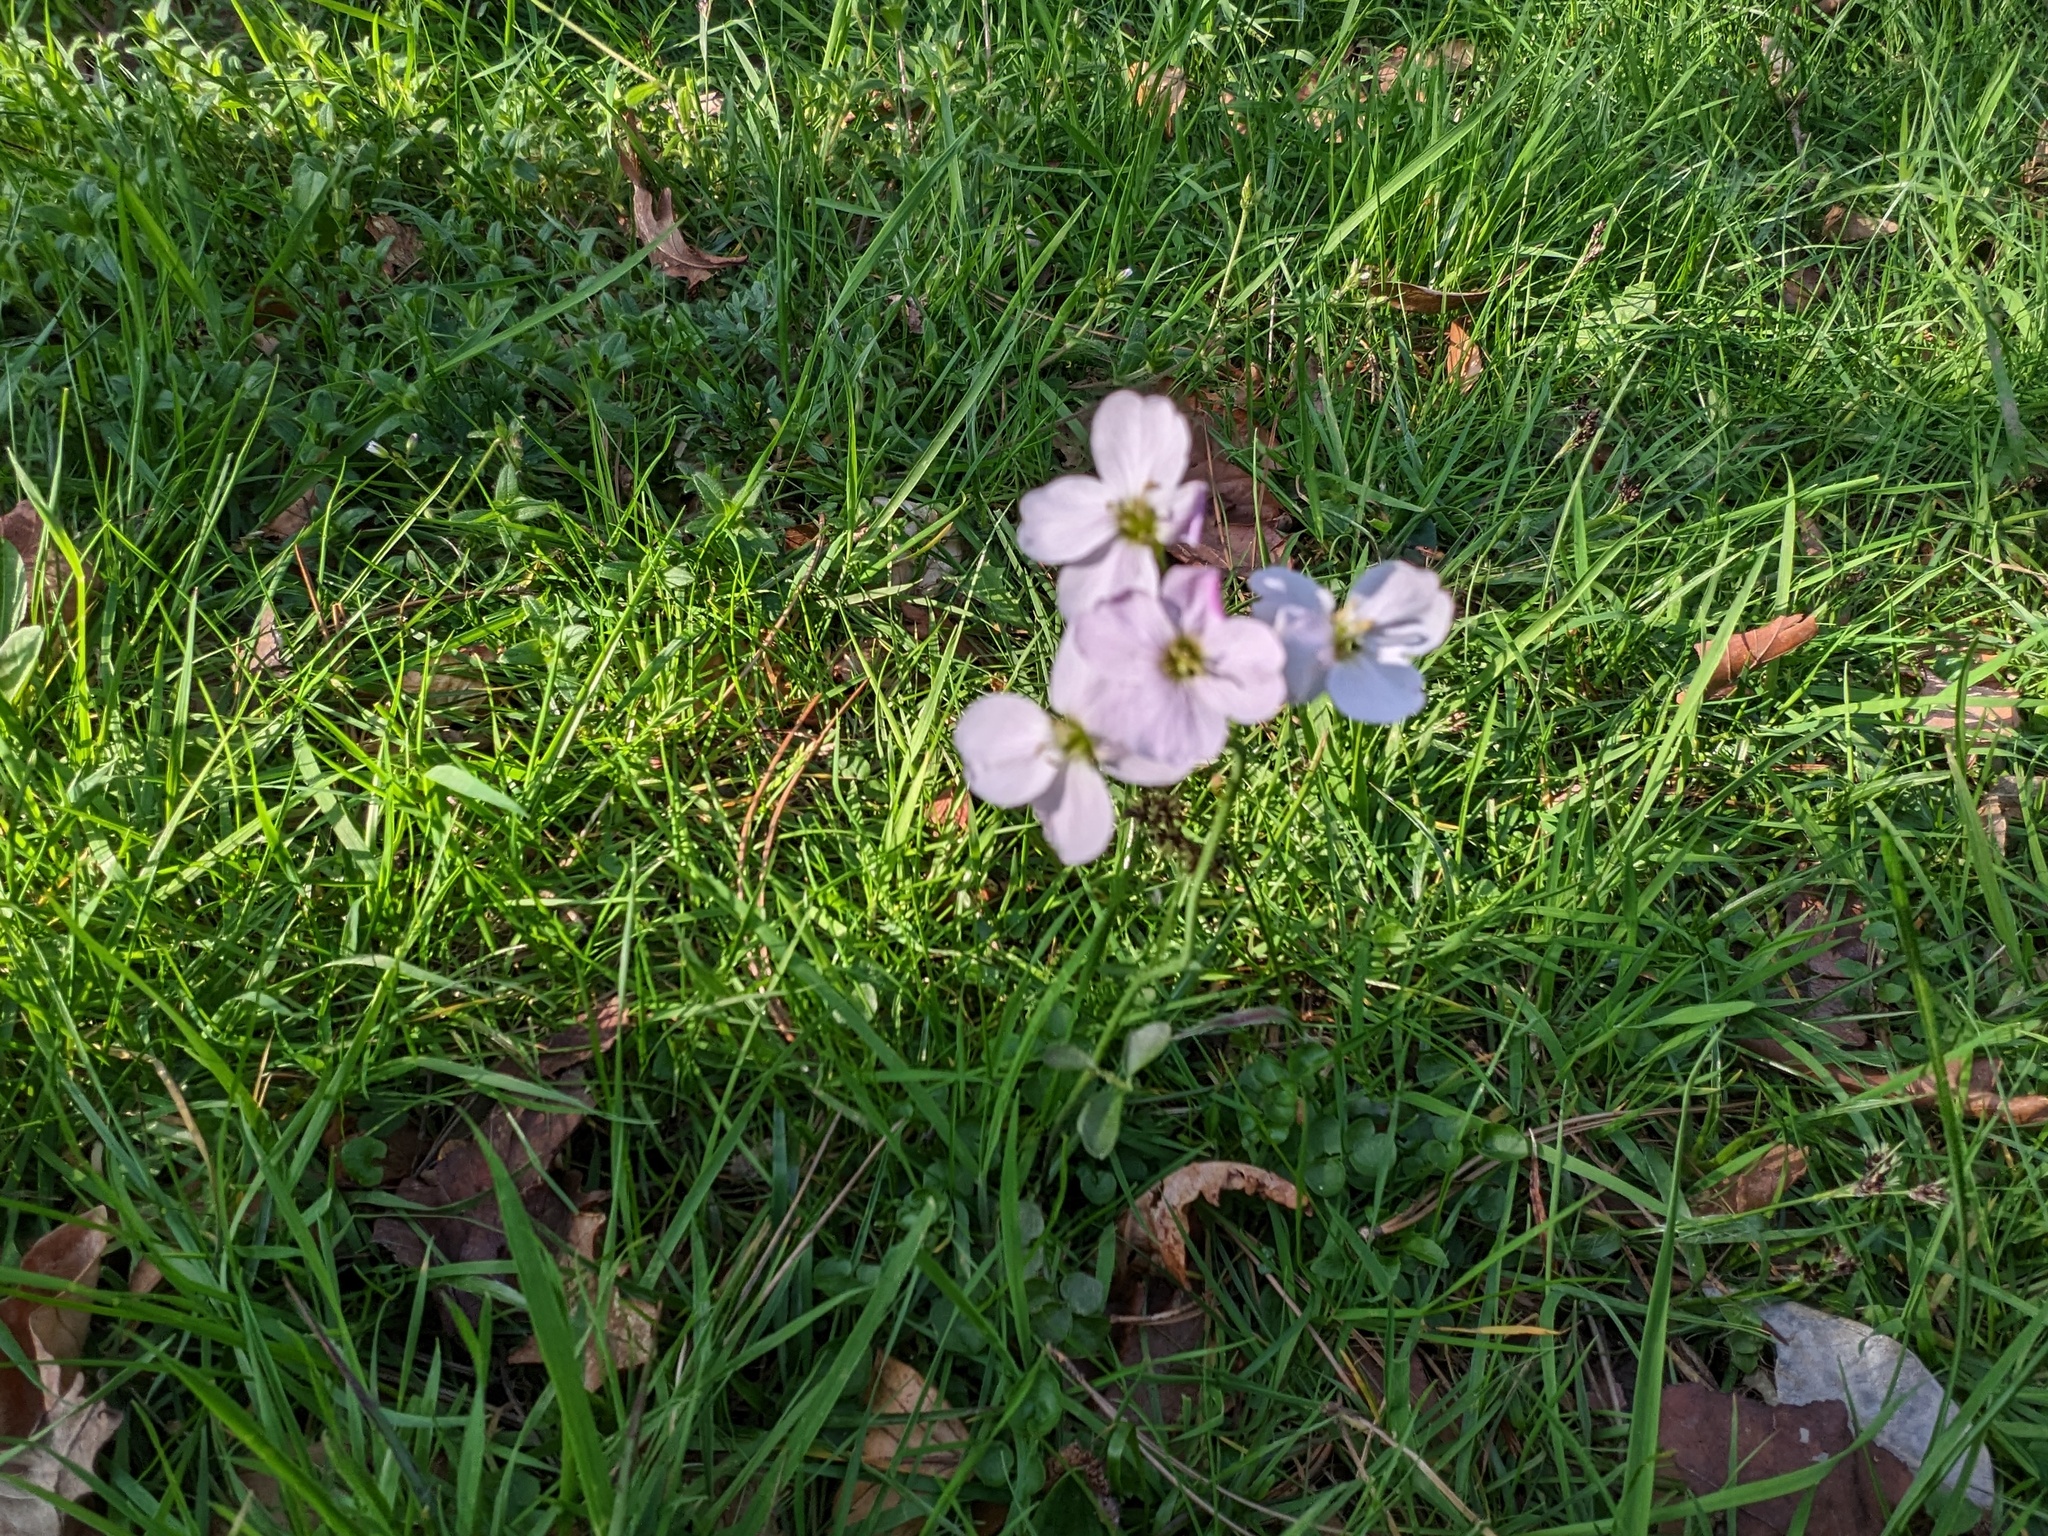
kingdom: Plantae
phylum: Tracheophyta
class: Magnoliopsida
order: Brassicales
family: Brassicaceae
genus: Cardamine
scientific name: Cardamine pratensis
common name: Cuckoo flower
